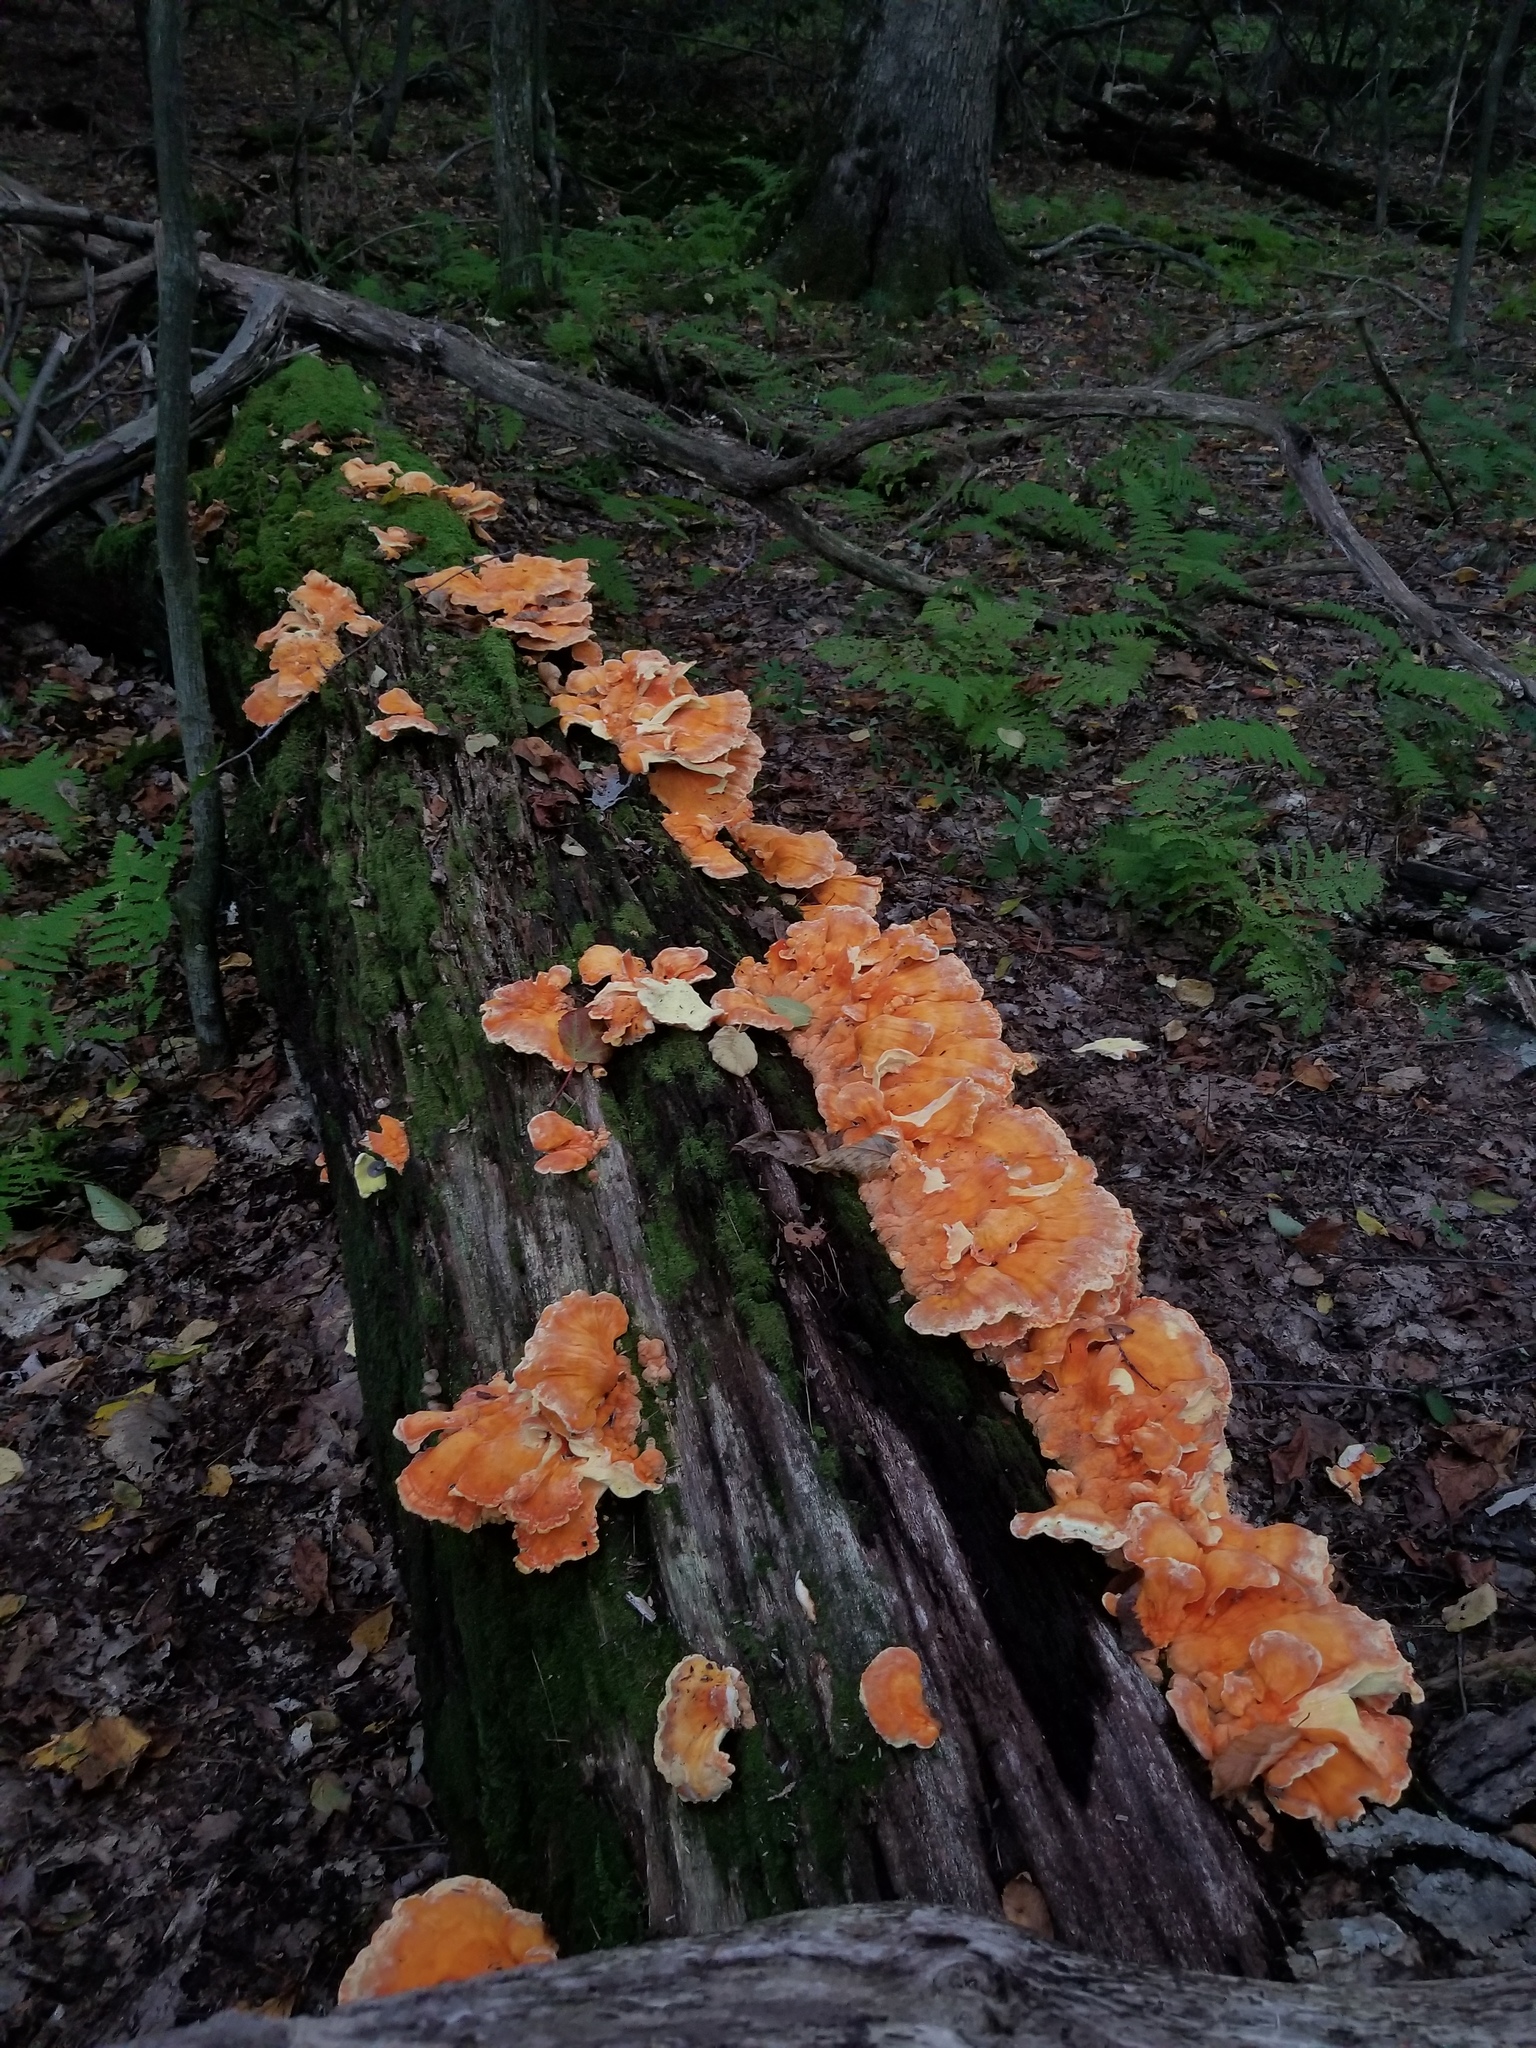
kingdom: Fungi
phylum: Basidiomycota
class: Agaricomycetes
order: Polyporales
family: Laetiporaceae
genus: Laetiporus
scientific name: Laetiporus sulphureus
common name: Chicken of the woods
